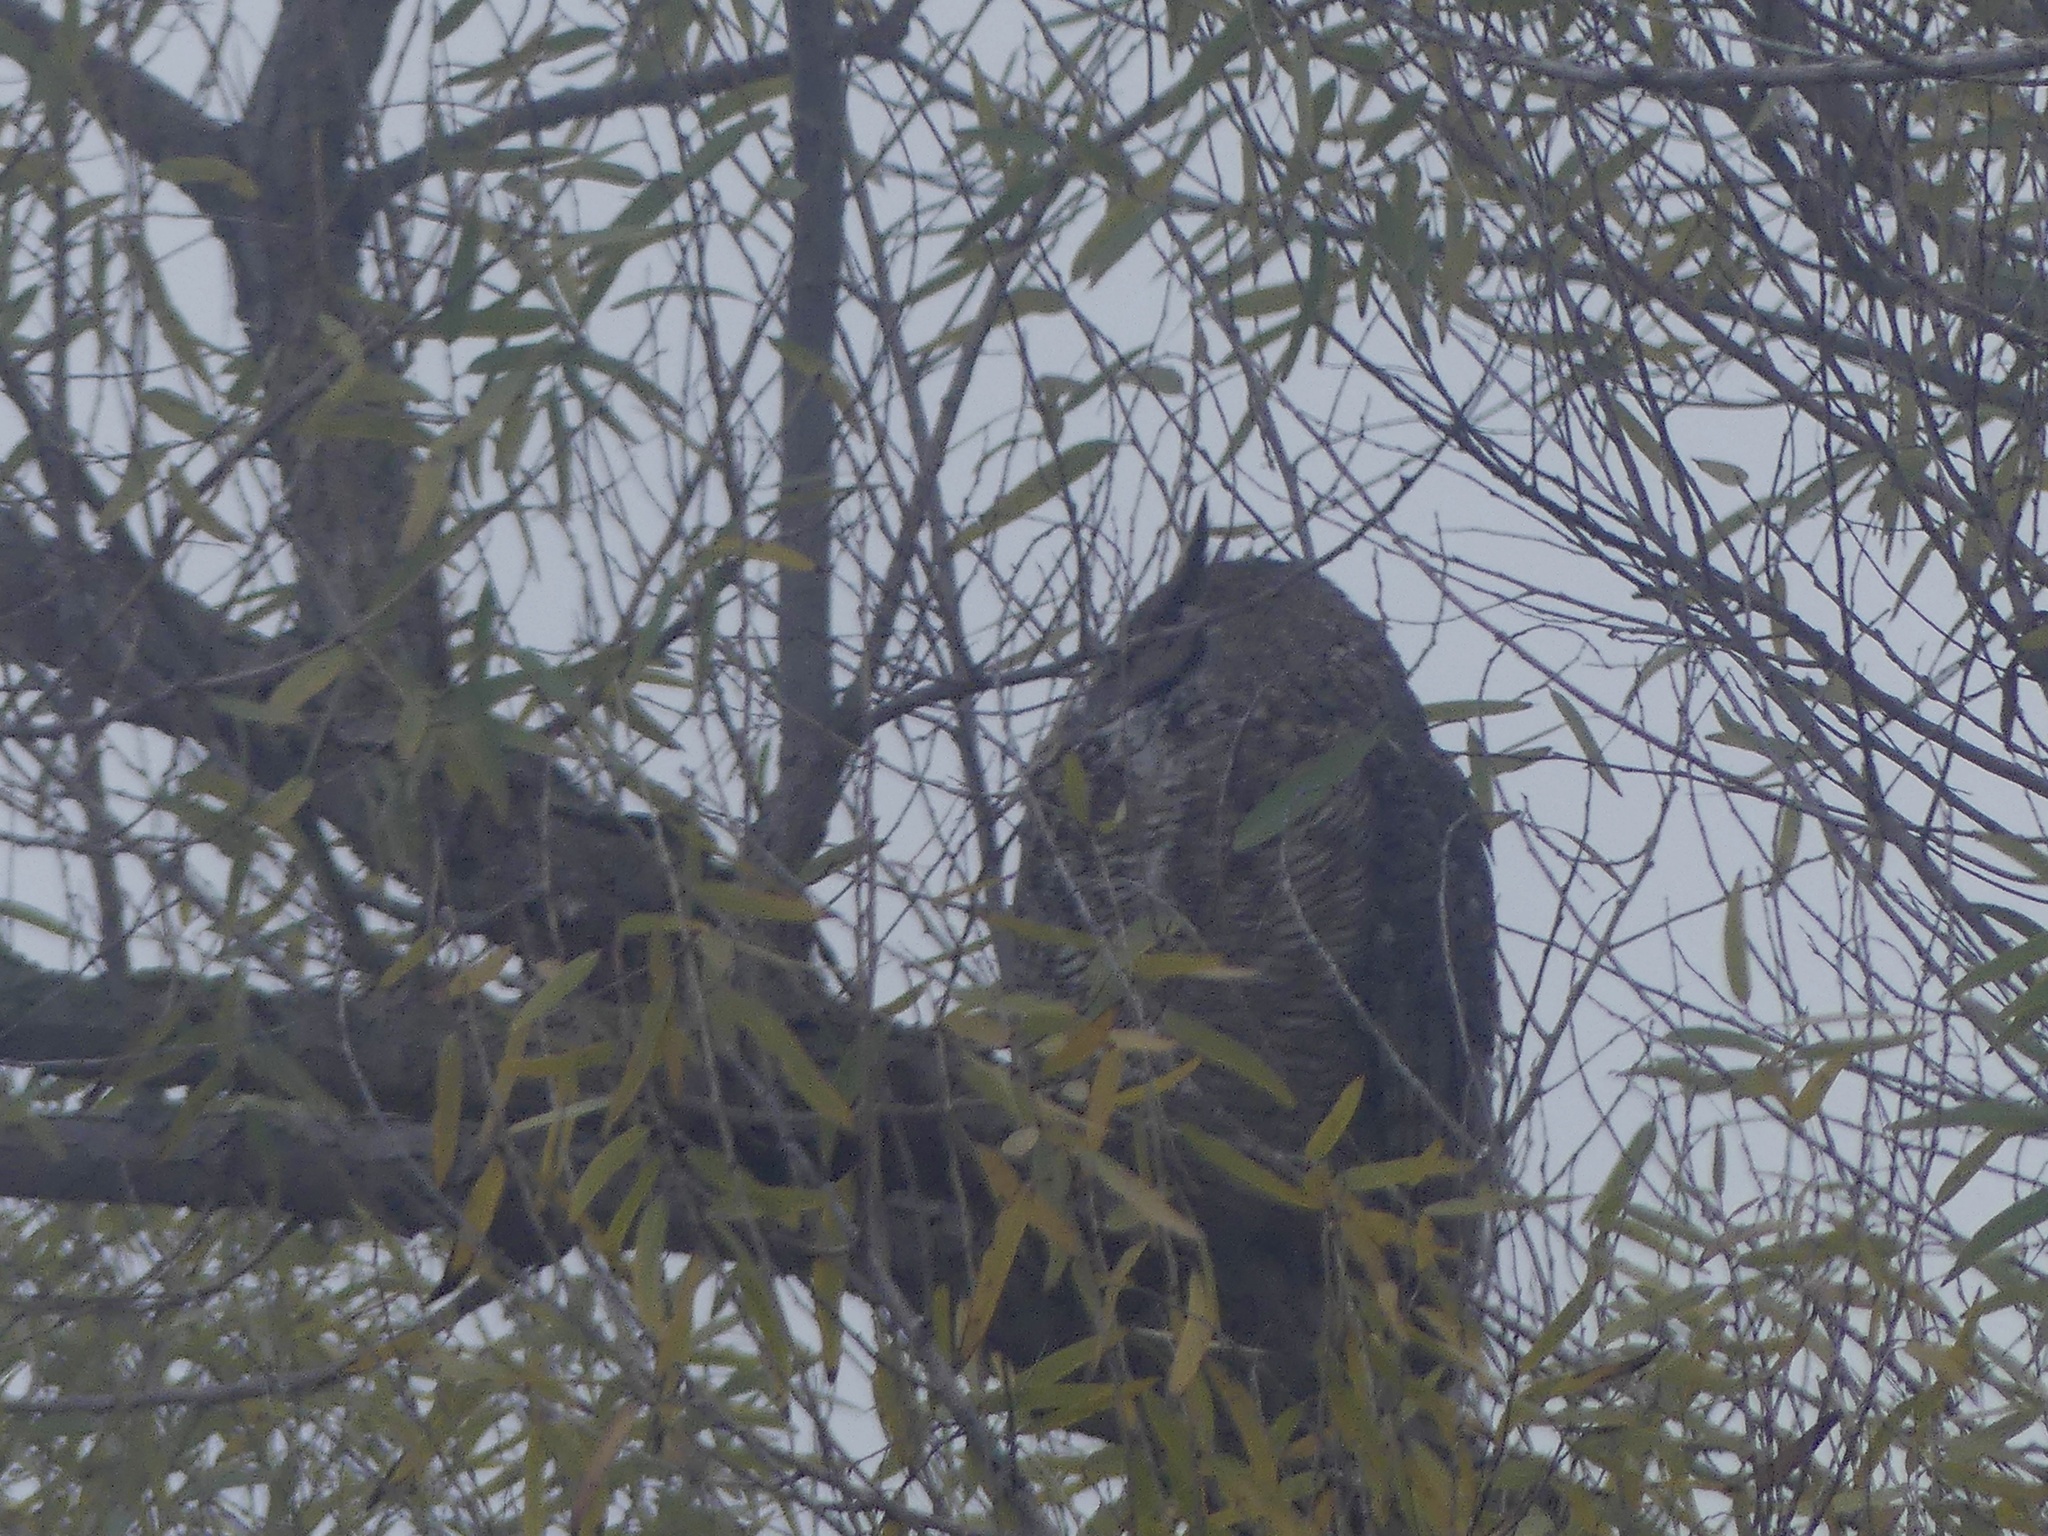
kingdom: Animalia
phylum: Chordata
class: Aves
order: Strigiformes
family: Strigidae
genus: Bubo
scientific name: Bubo virginianus
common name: Great horned owl
